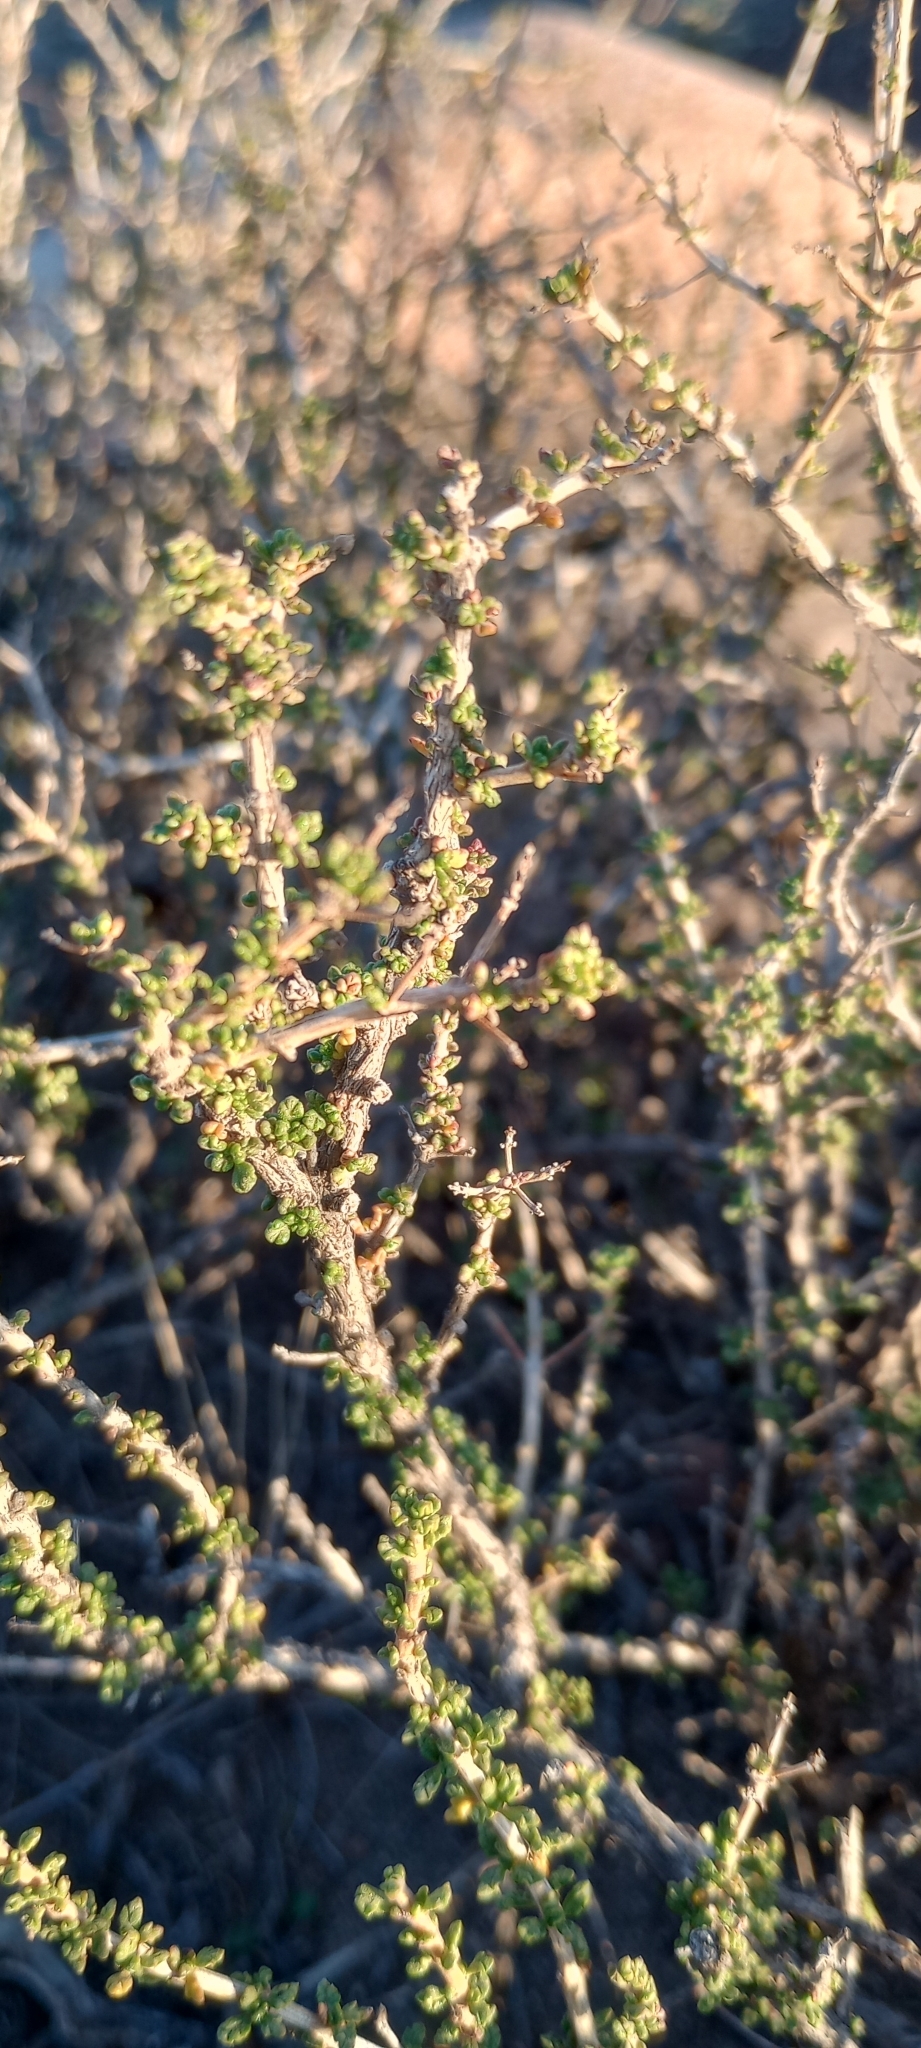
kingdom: Plantae
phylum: Tracheophyta
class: Magnoliopsida
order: Lamiales
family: Verbenaceae
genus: Acantholippia
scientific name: Acantholippia seriphioides
